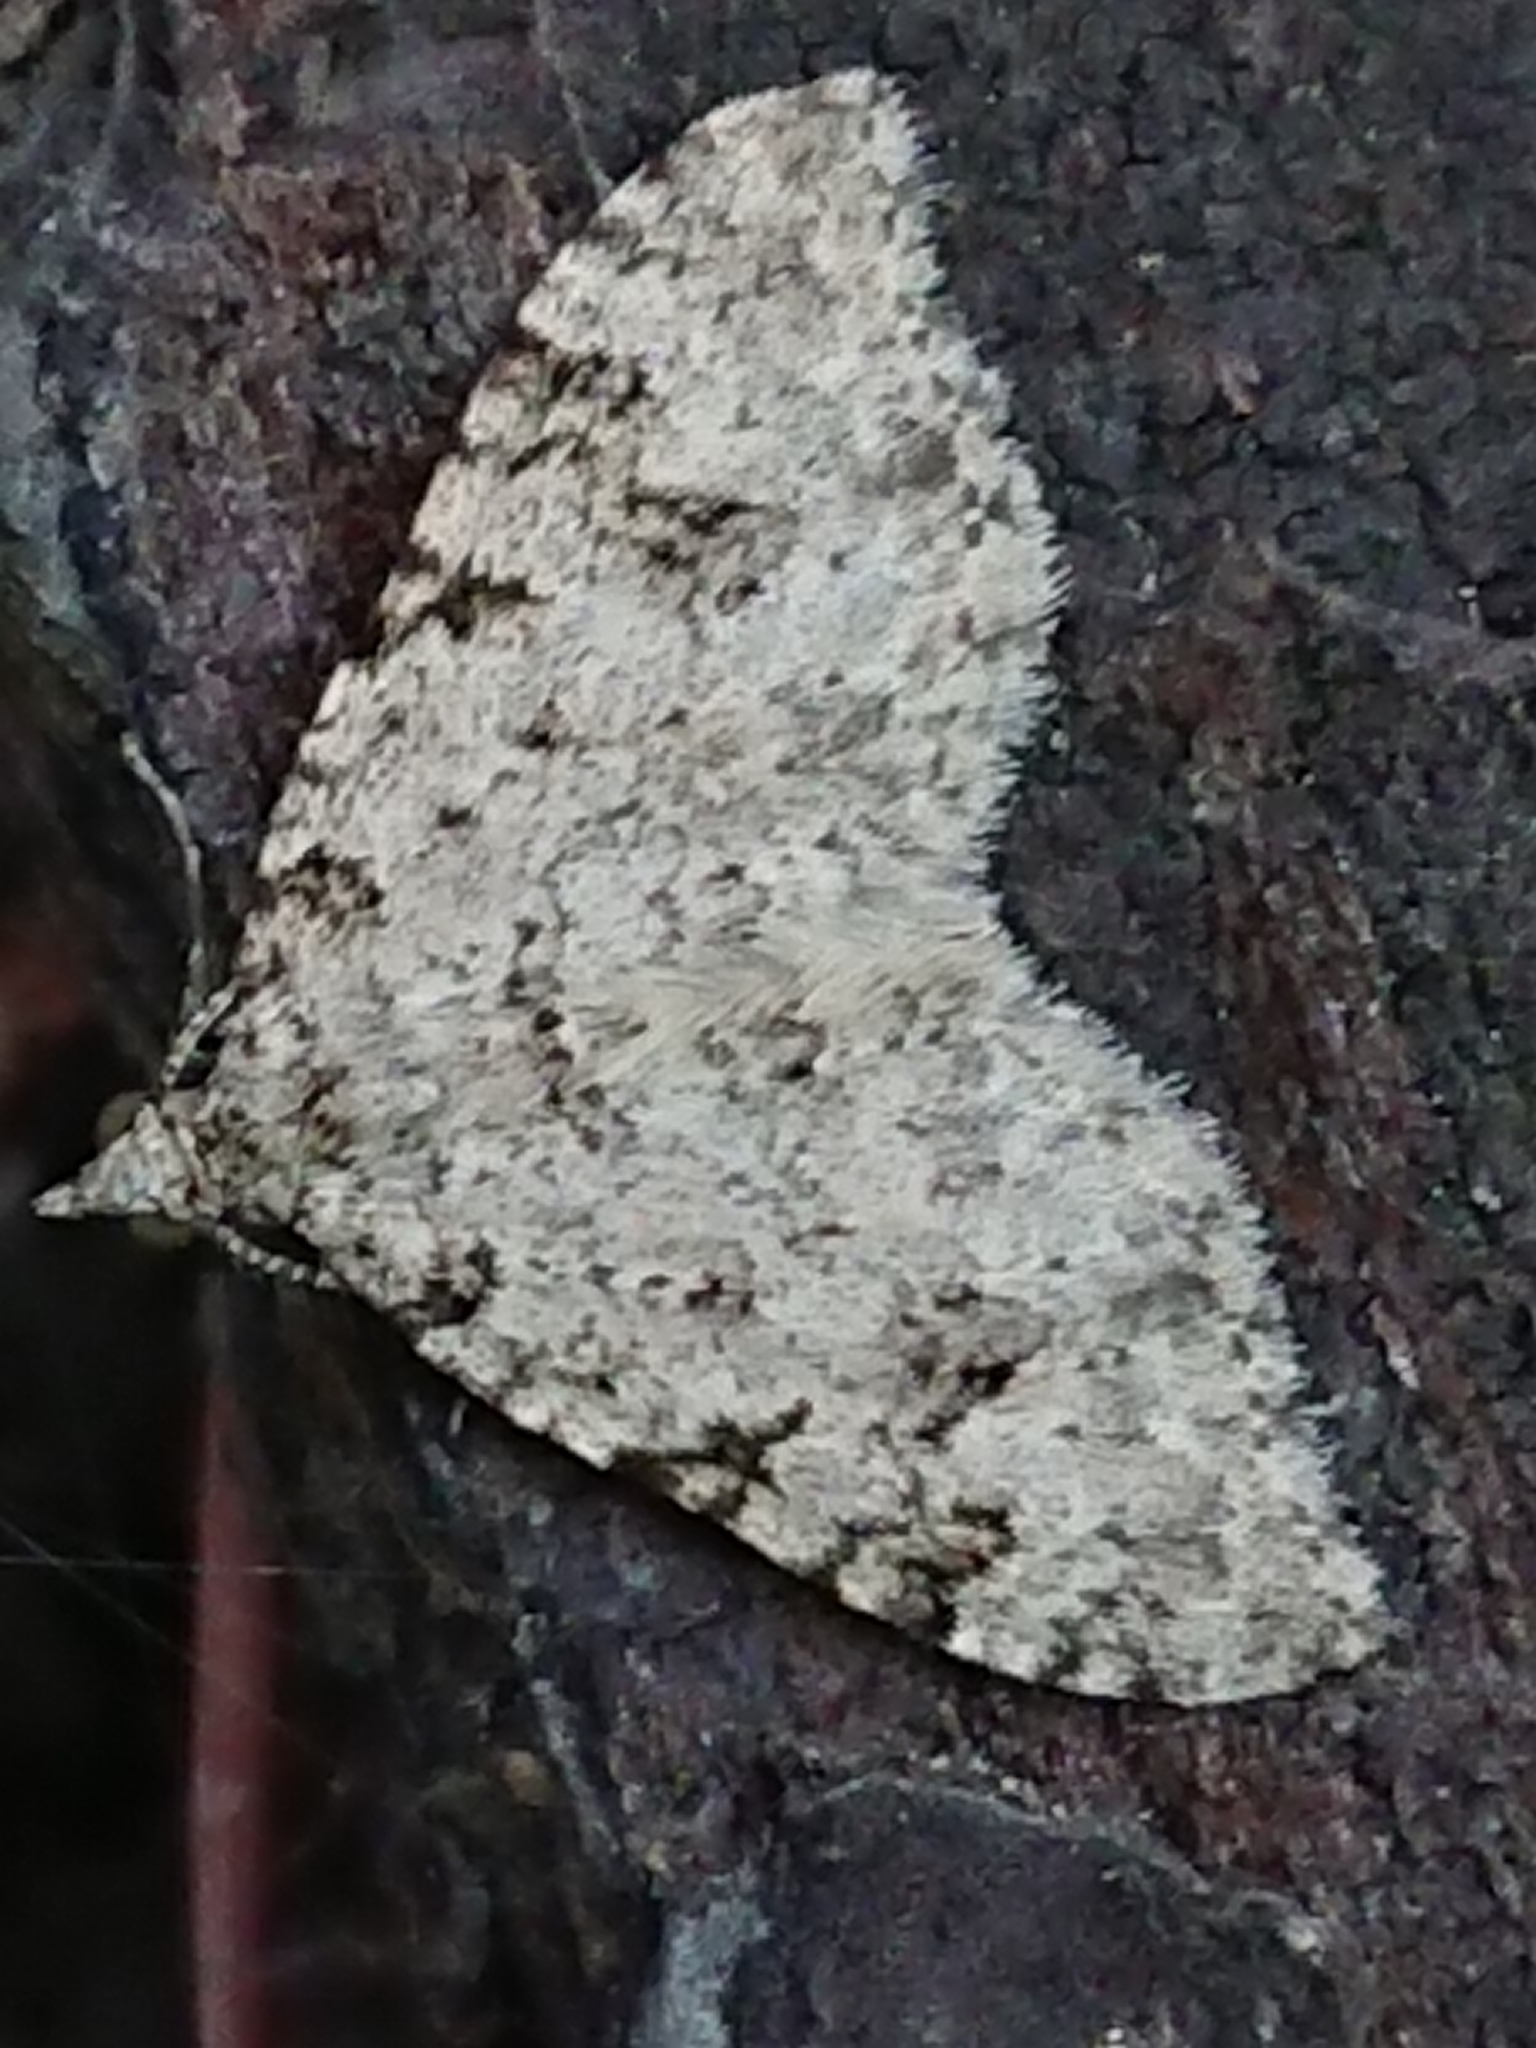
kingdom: Animalia
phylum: Arthropoda
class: Insecta
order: Lepidoptera
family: Geometridae
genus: Helastia
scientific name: Helastia cinerearia
